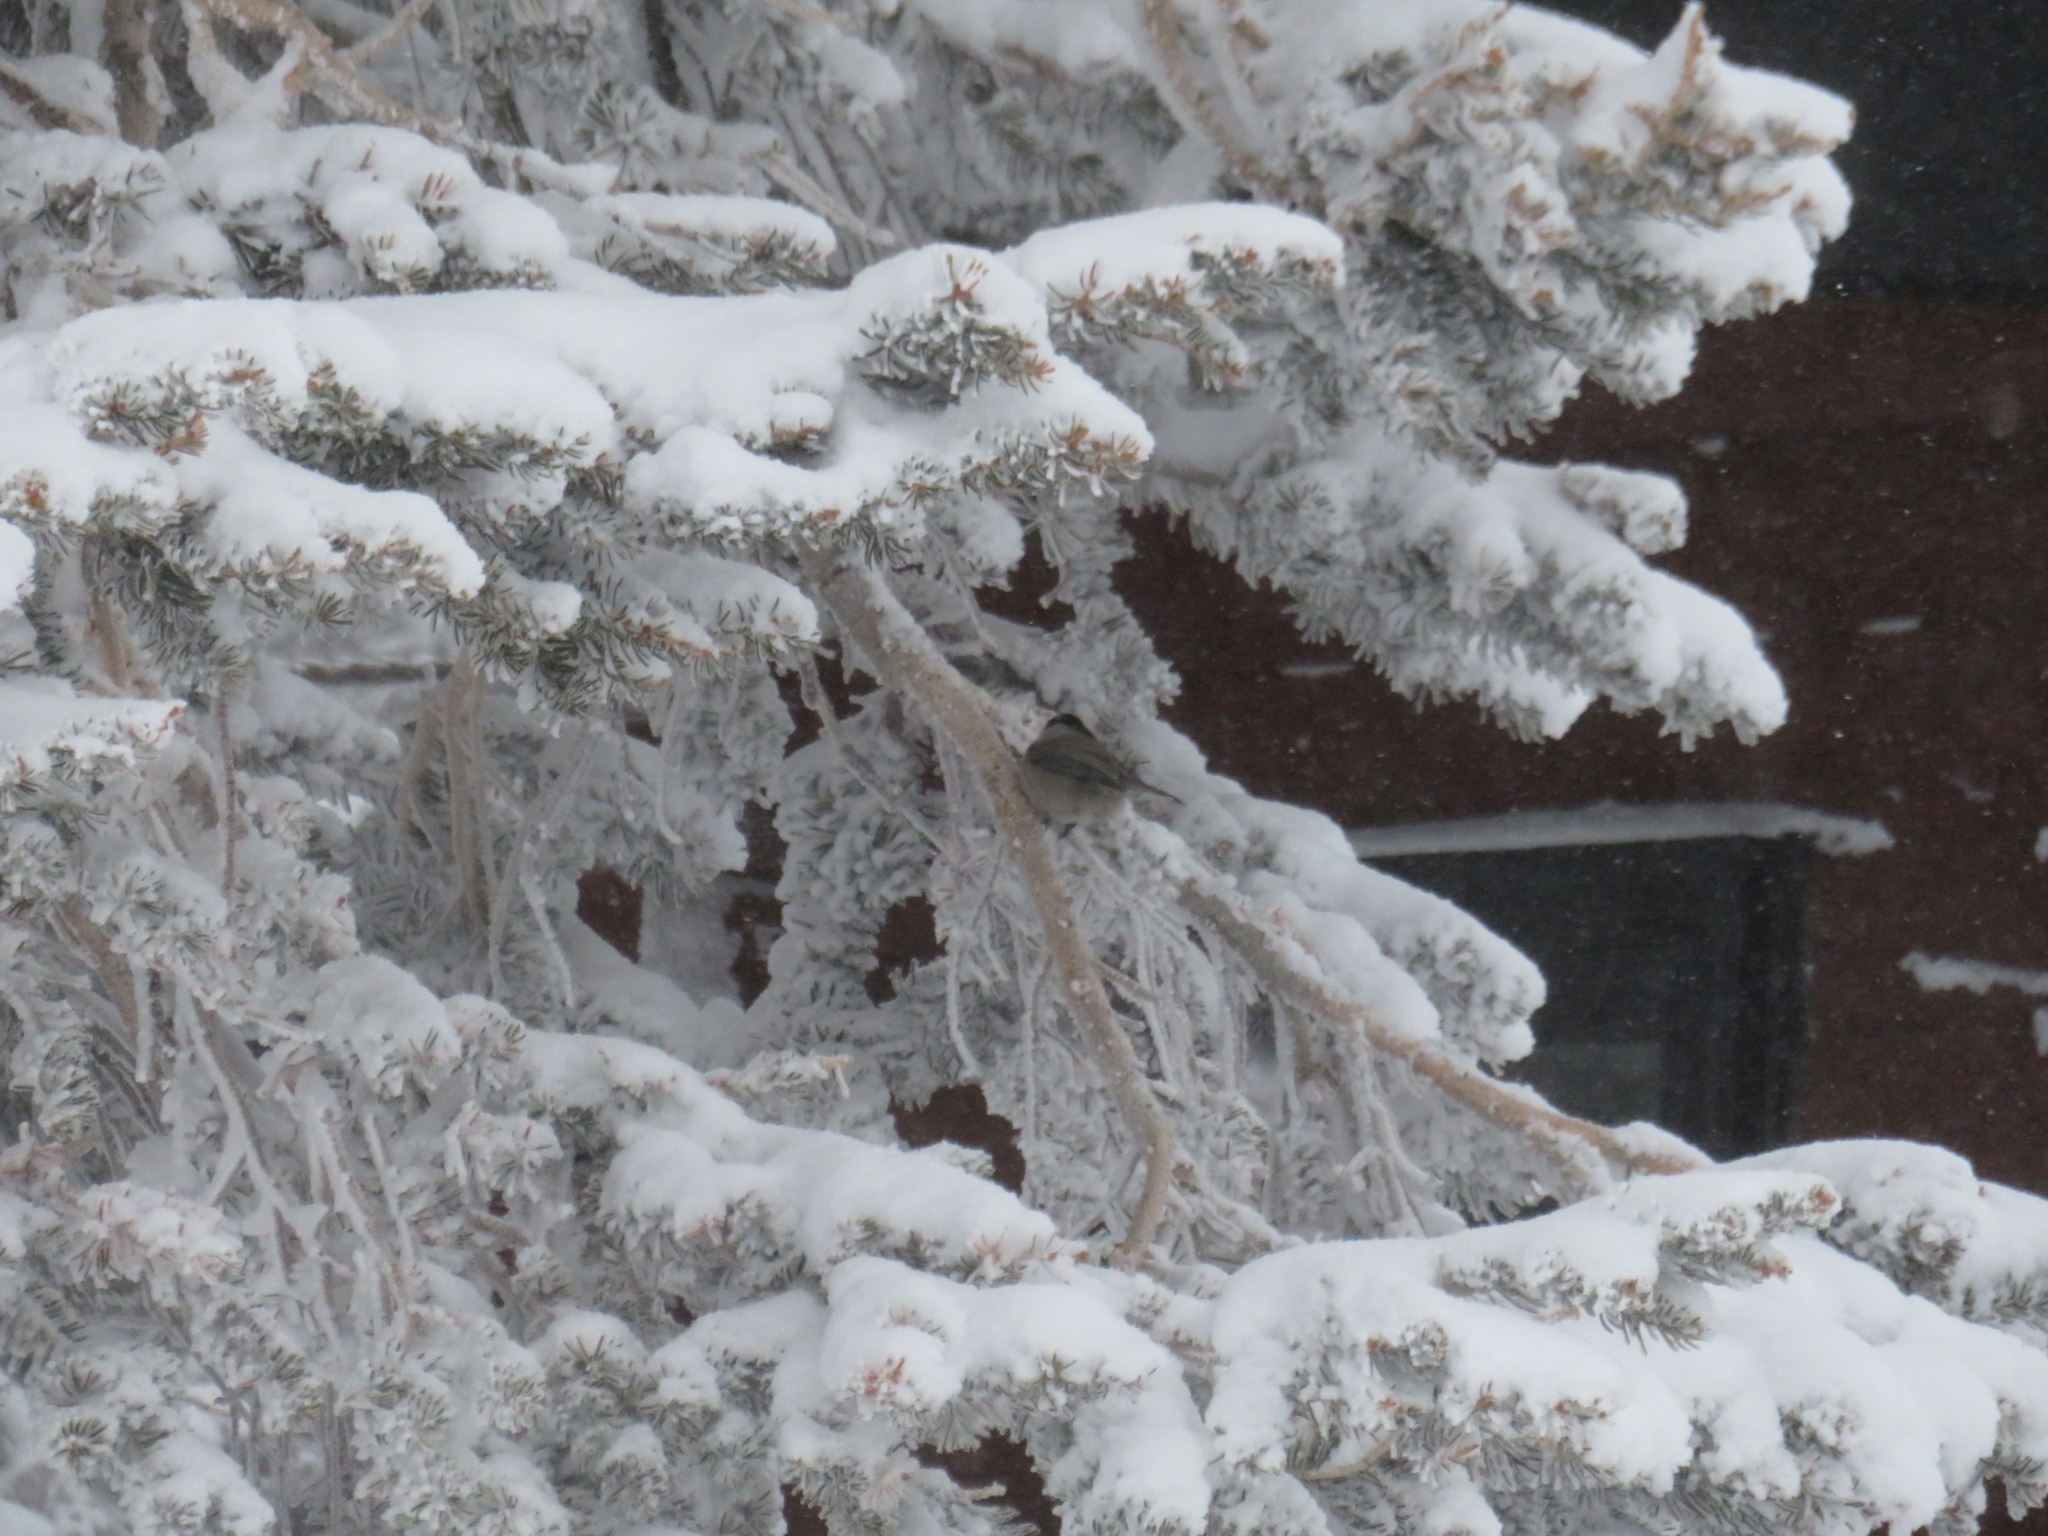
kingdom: Animalia
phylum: Chordata
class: Aves
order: Passeriformes
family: Paridae
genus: Poecile
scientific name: Poecile gambeli
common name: Mountain chickadee
